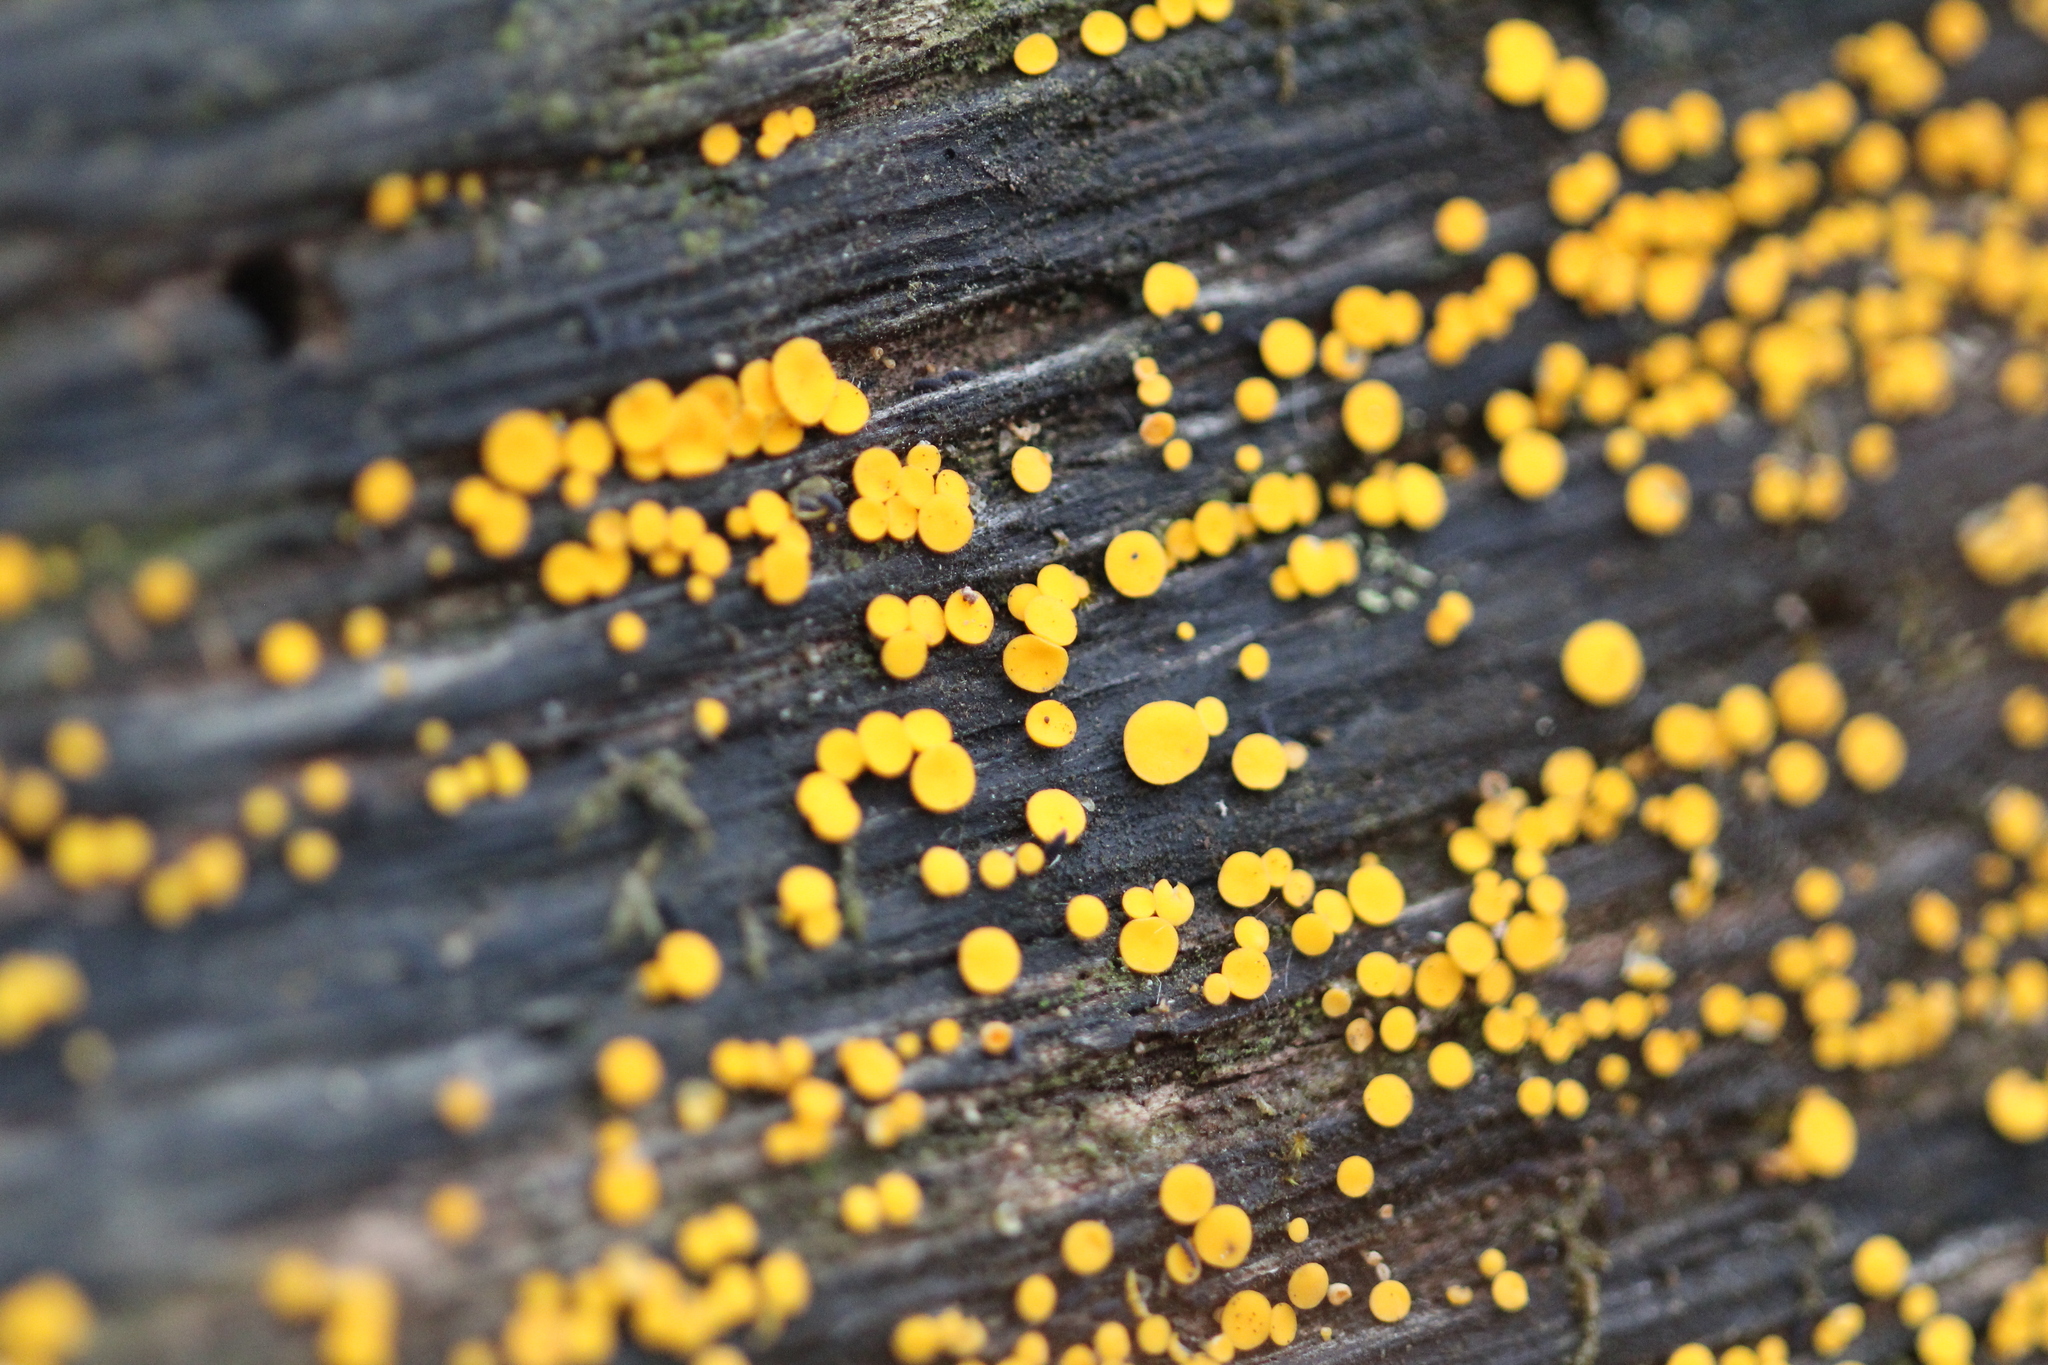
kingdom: Fungi
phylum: Ascomycota
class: Leotiomycetes
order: Helotiales
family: Pezizellaceae
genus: Calycina
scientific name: Calycina citrina
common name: Yellow fairy cups
